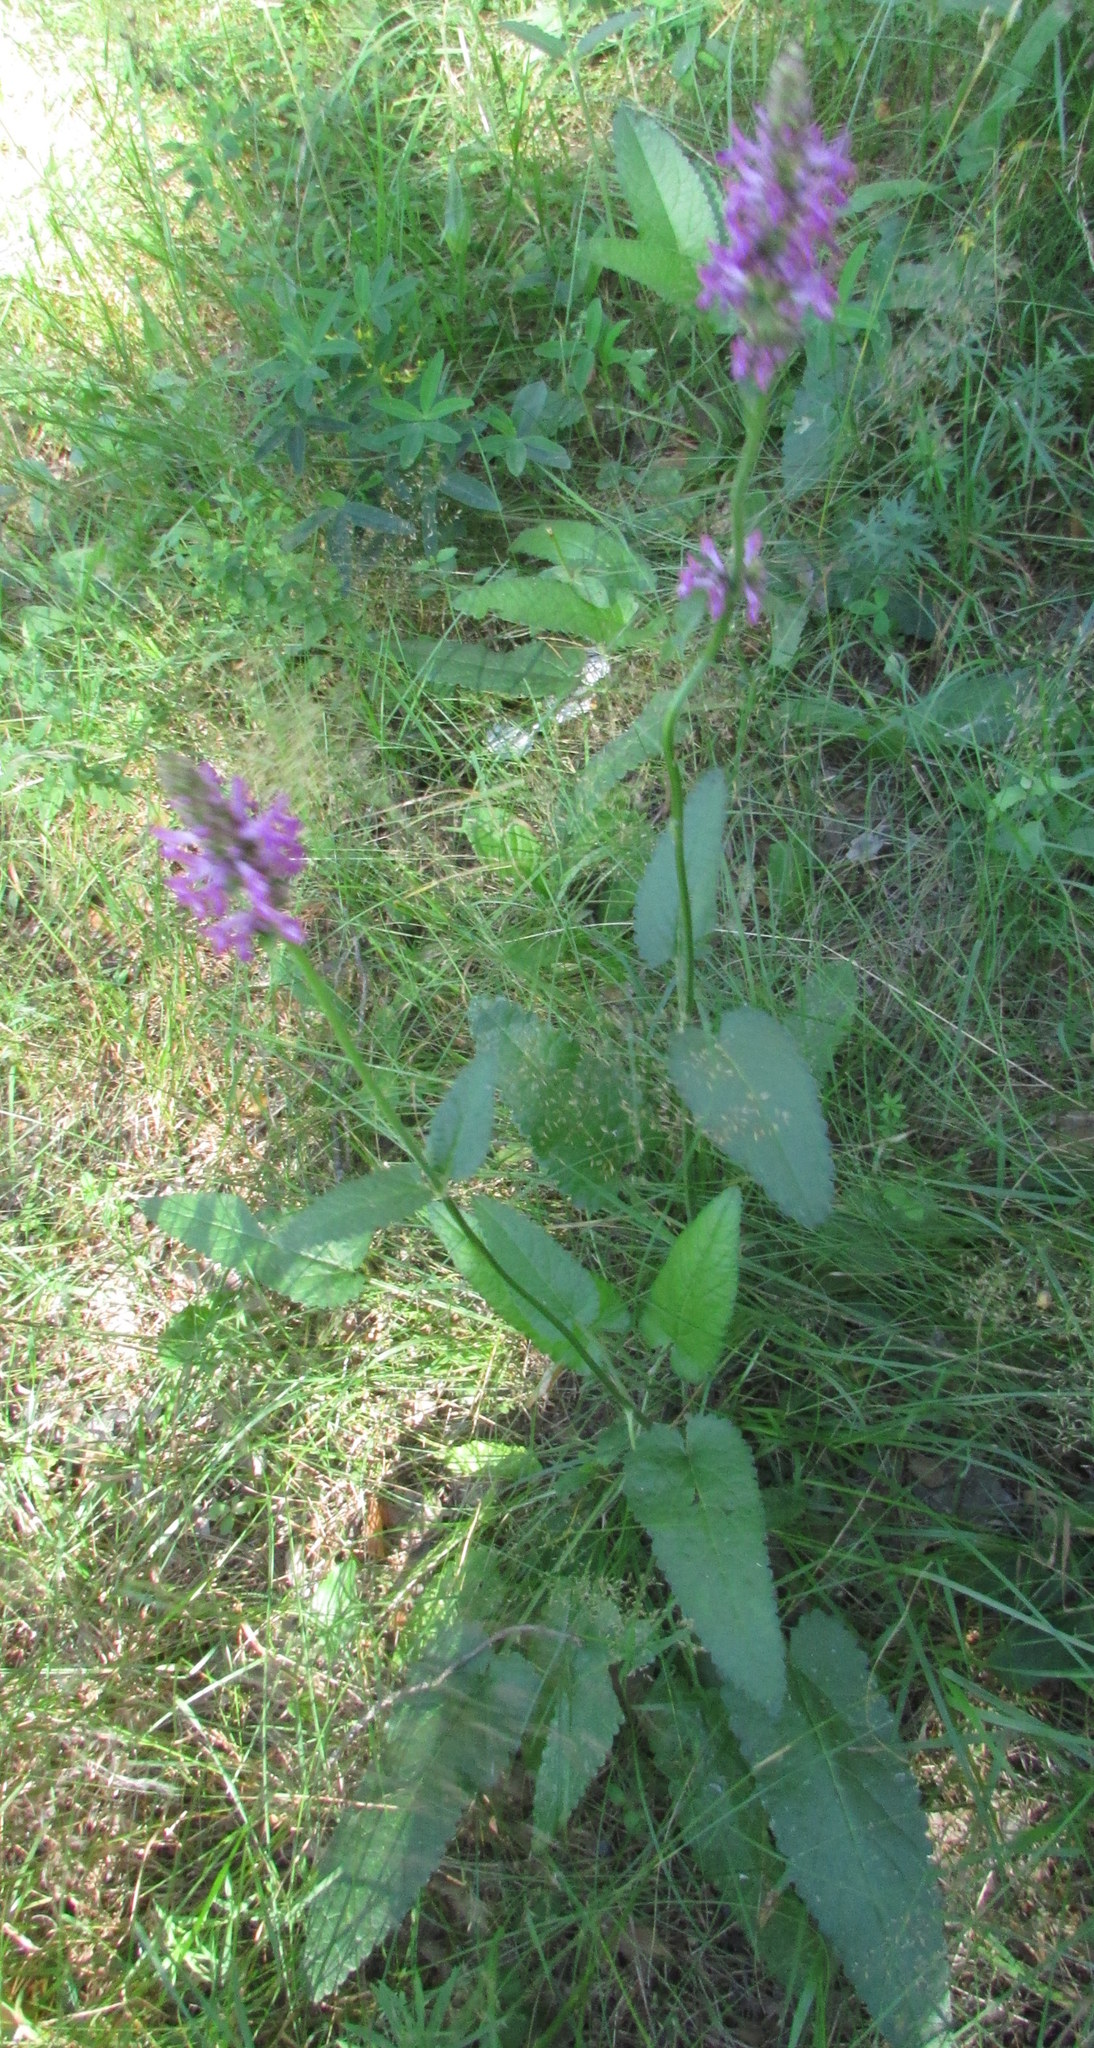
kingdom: Plantae
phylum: Tracheophyta
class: Magnoliopsida
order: Lamiales
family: Lamiaceae
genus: Betonica
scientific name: Betonica officinalis
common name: Bishop's-wort
